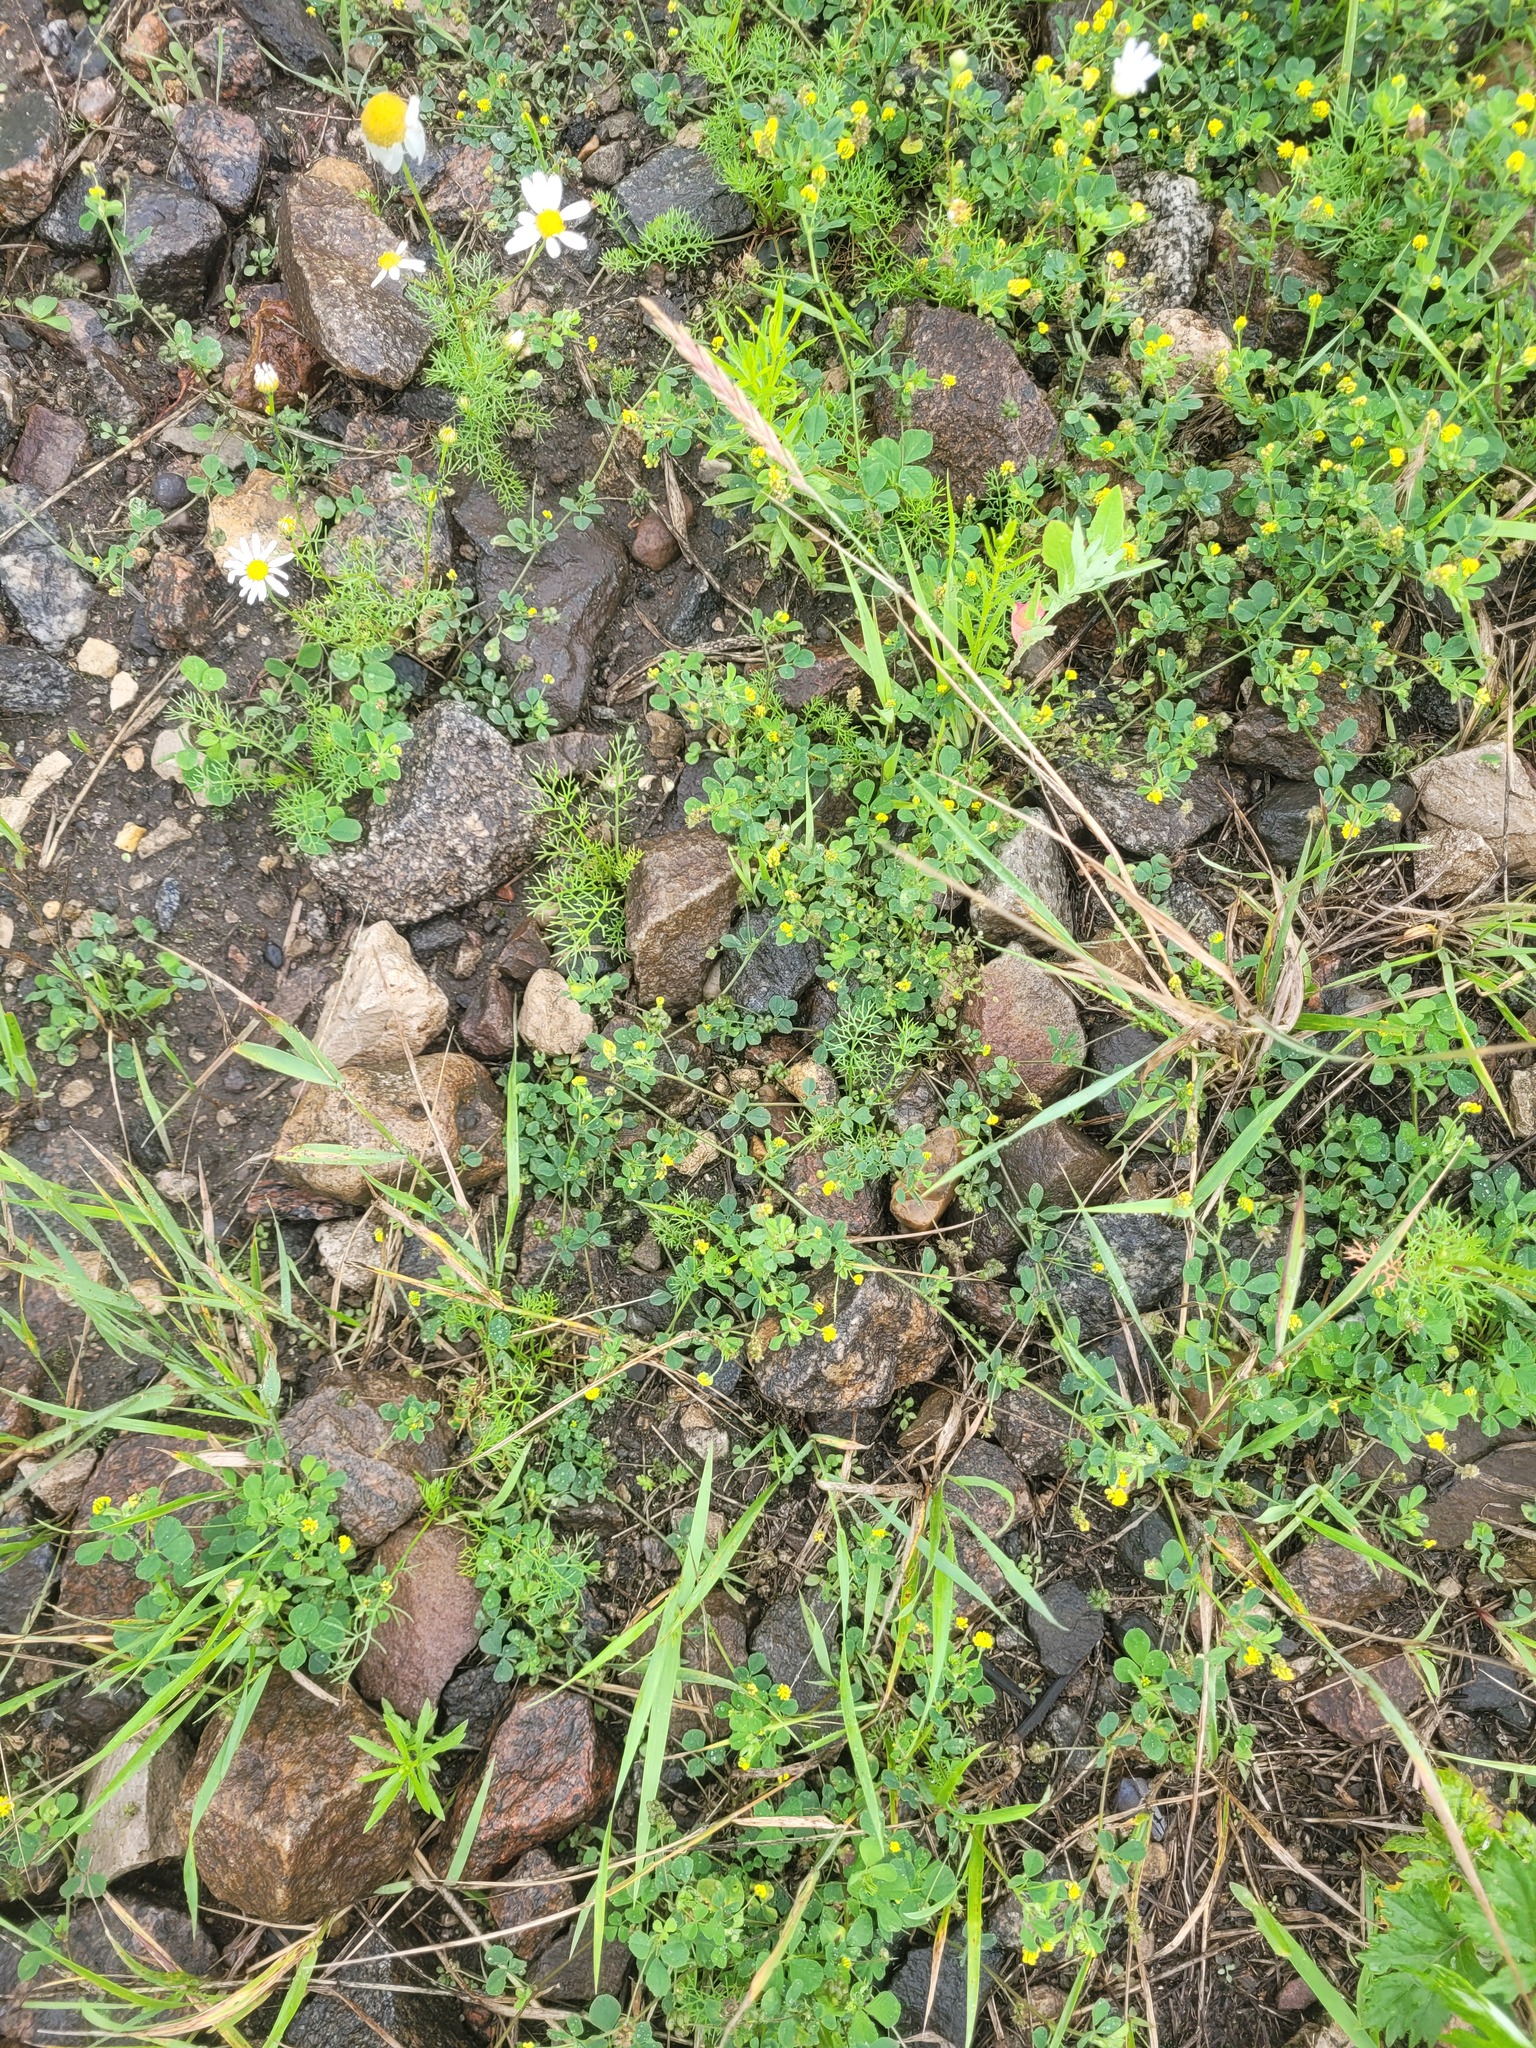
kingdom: Plantae
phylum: Tracheophyta
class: Magnoliopsida
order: Fabales
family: Fabaceae
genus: Medicago
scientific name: Medicago lupulina
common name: Black medick
